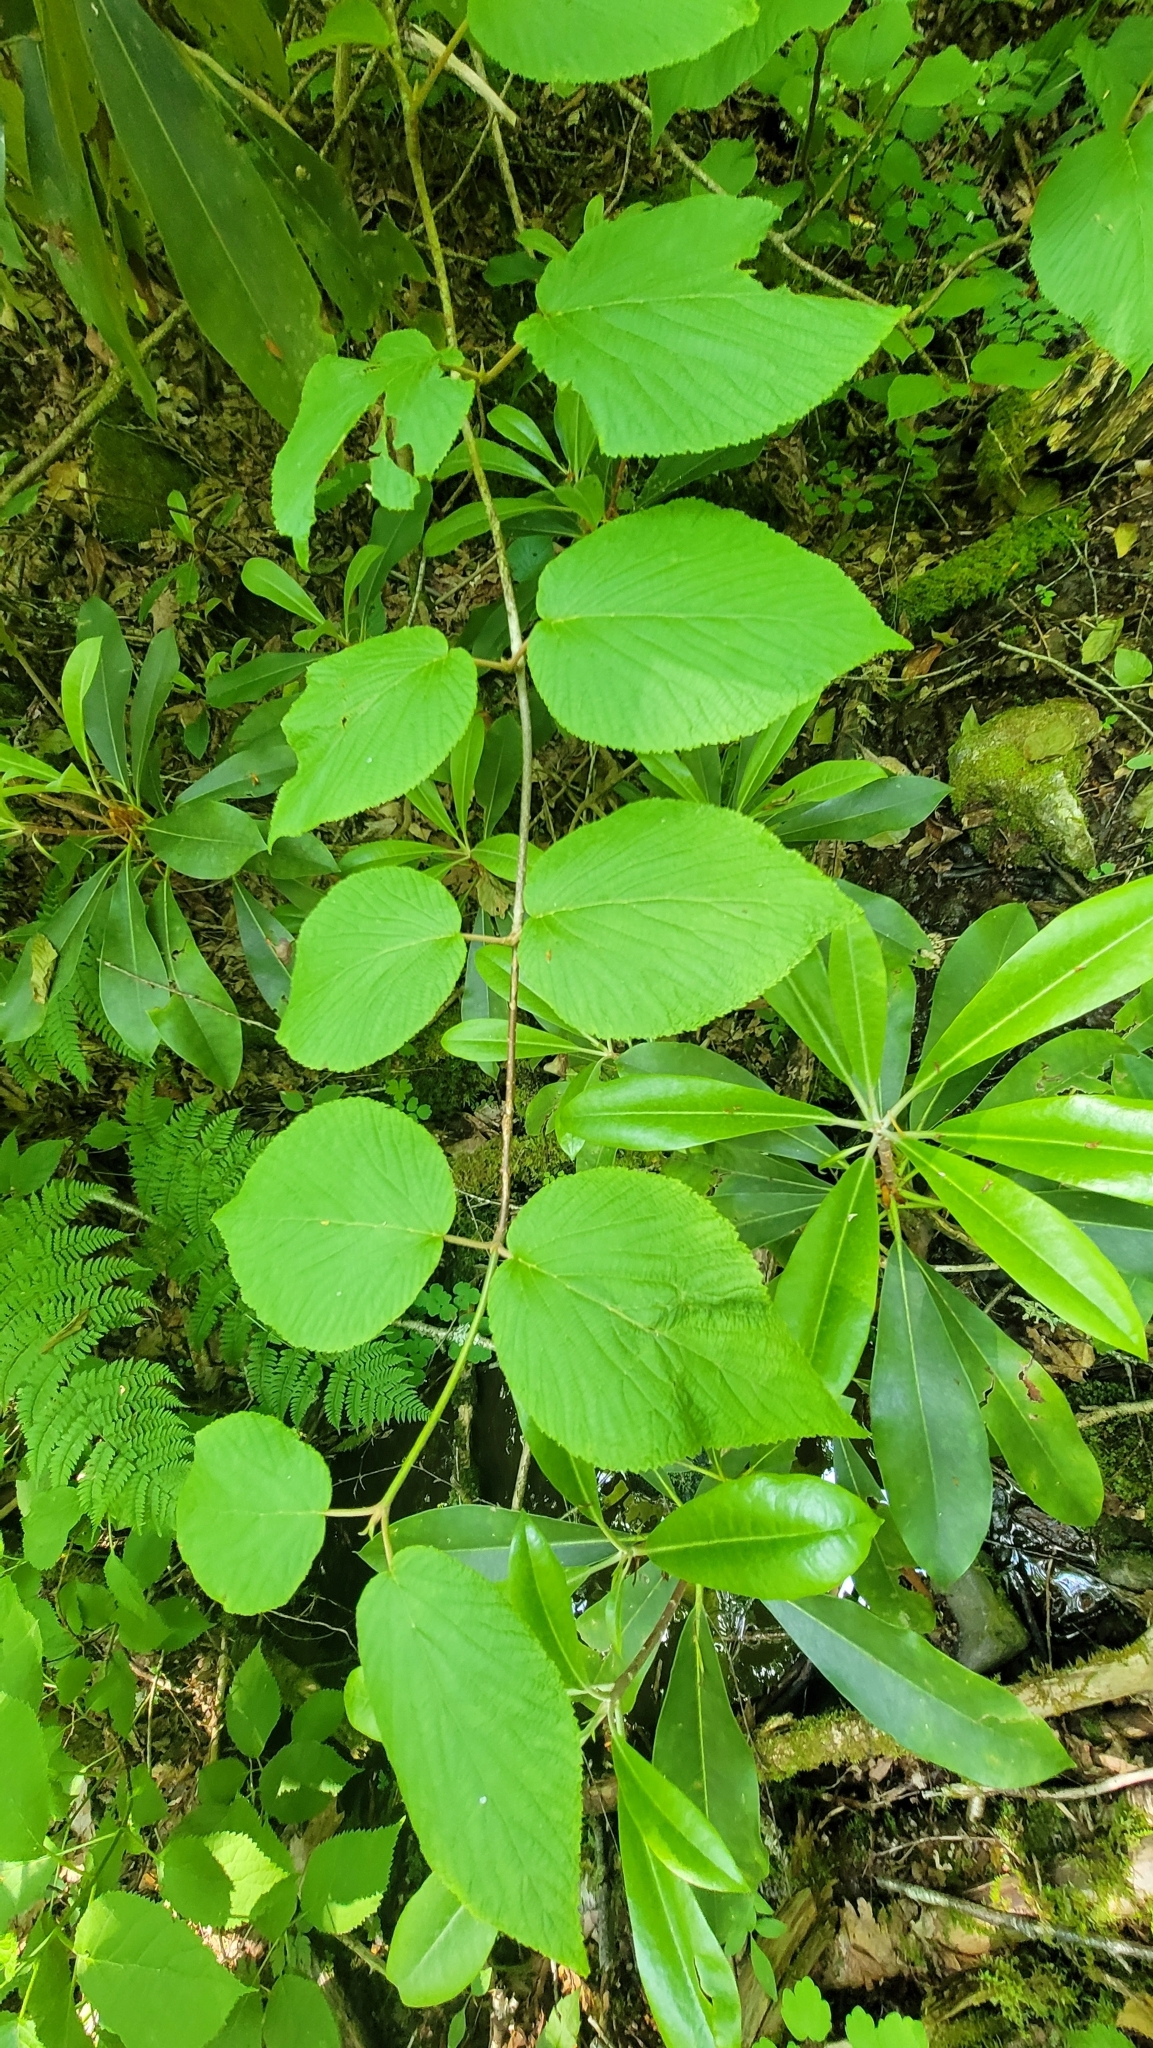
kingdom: Plantae
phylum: Tracheophyta
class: Magnoliopsida
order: Dipsacales
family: Viburnaceae
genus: Viburnum
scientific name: Viburnum lantanoides
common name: Hobblebush
